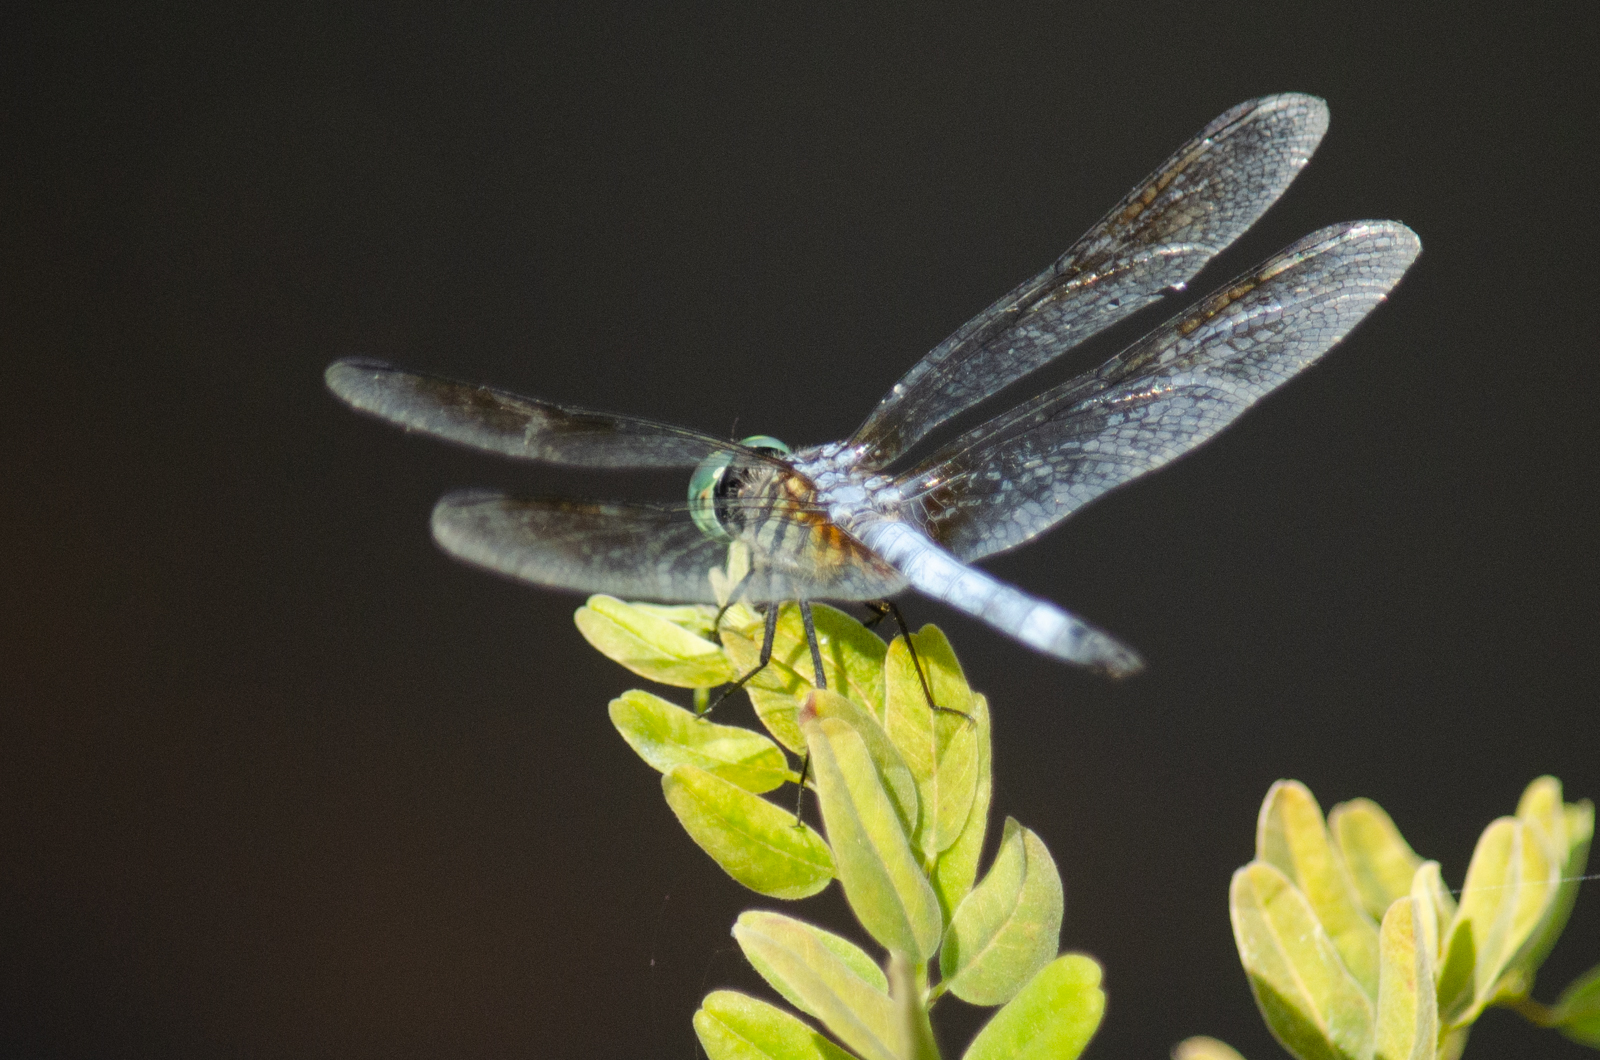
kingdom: Animalia
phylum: Arthropoda
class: Insecta
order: Odonata
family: Libellulidae
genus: Pachydiplax
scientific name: Pachydiplax longipennis
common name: Blue dasher
